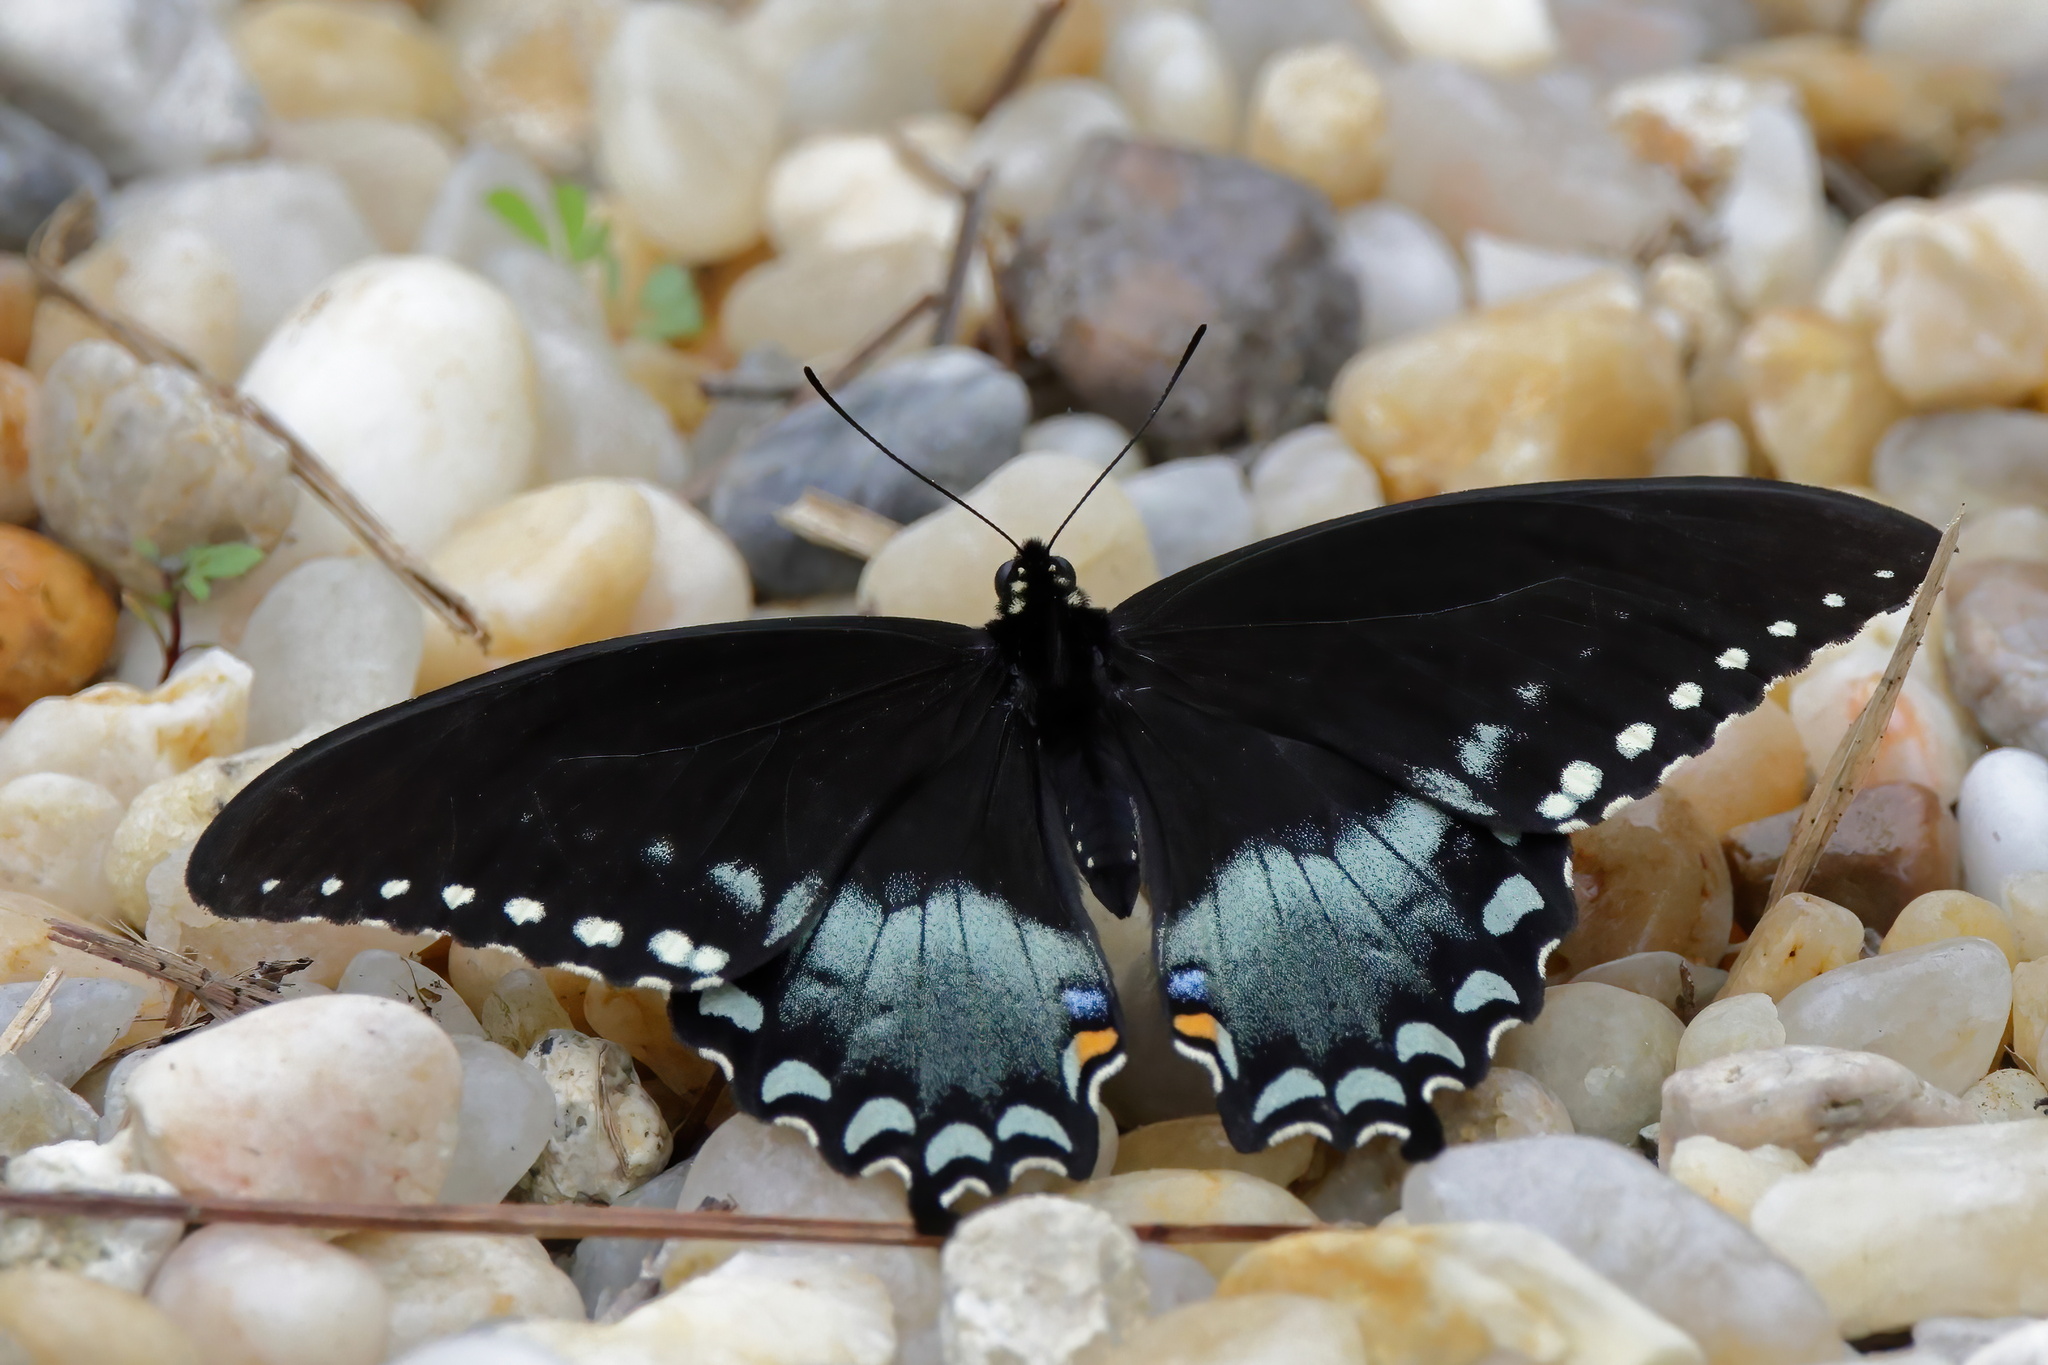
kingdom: Animalia
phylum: Arthropoda
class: Insecta
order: Lepidoptera
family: Papilionidae
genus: Papilio
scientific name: Papilio troilus
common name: Spicebush swallowtail
